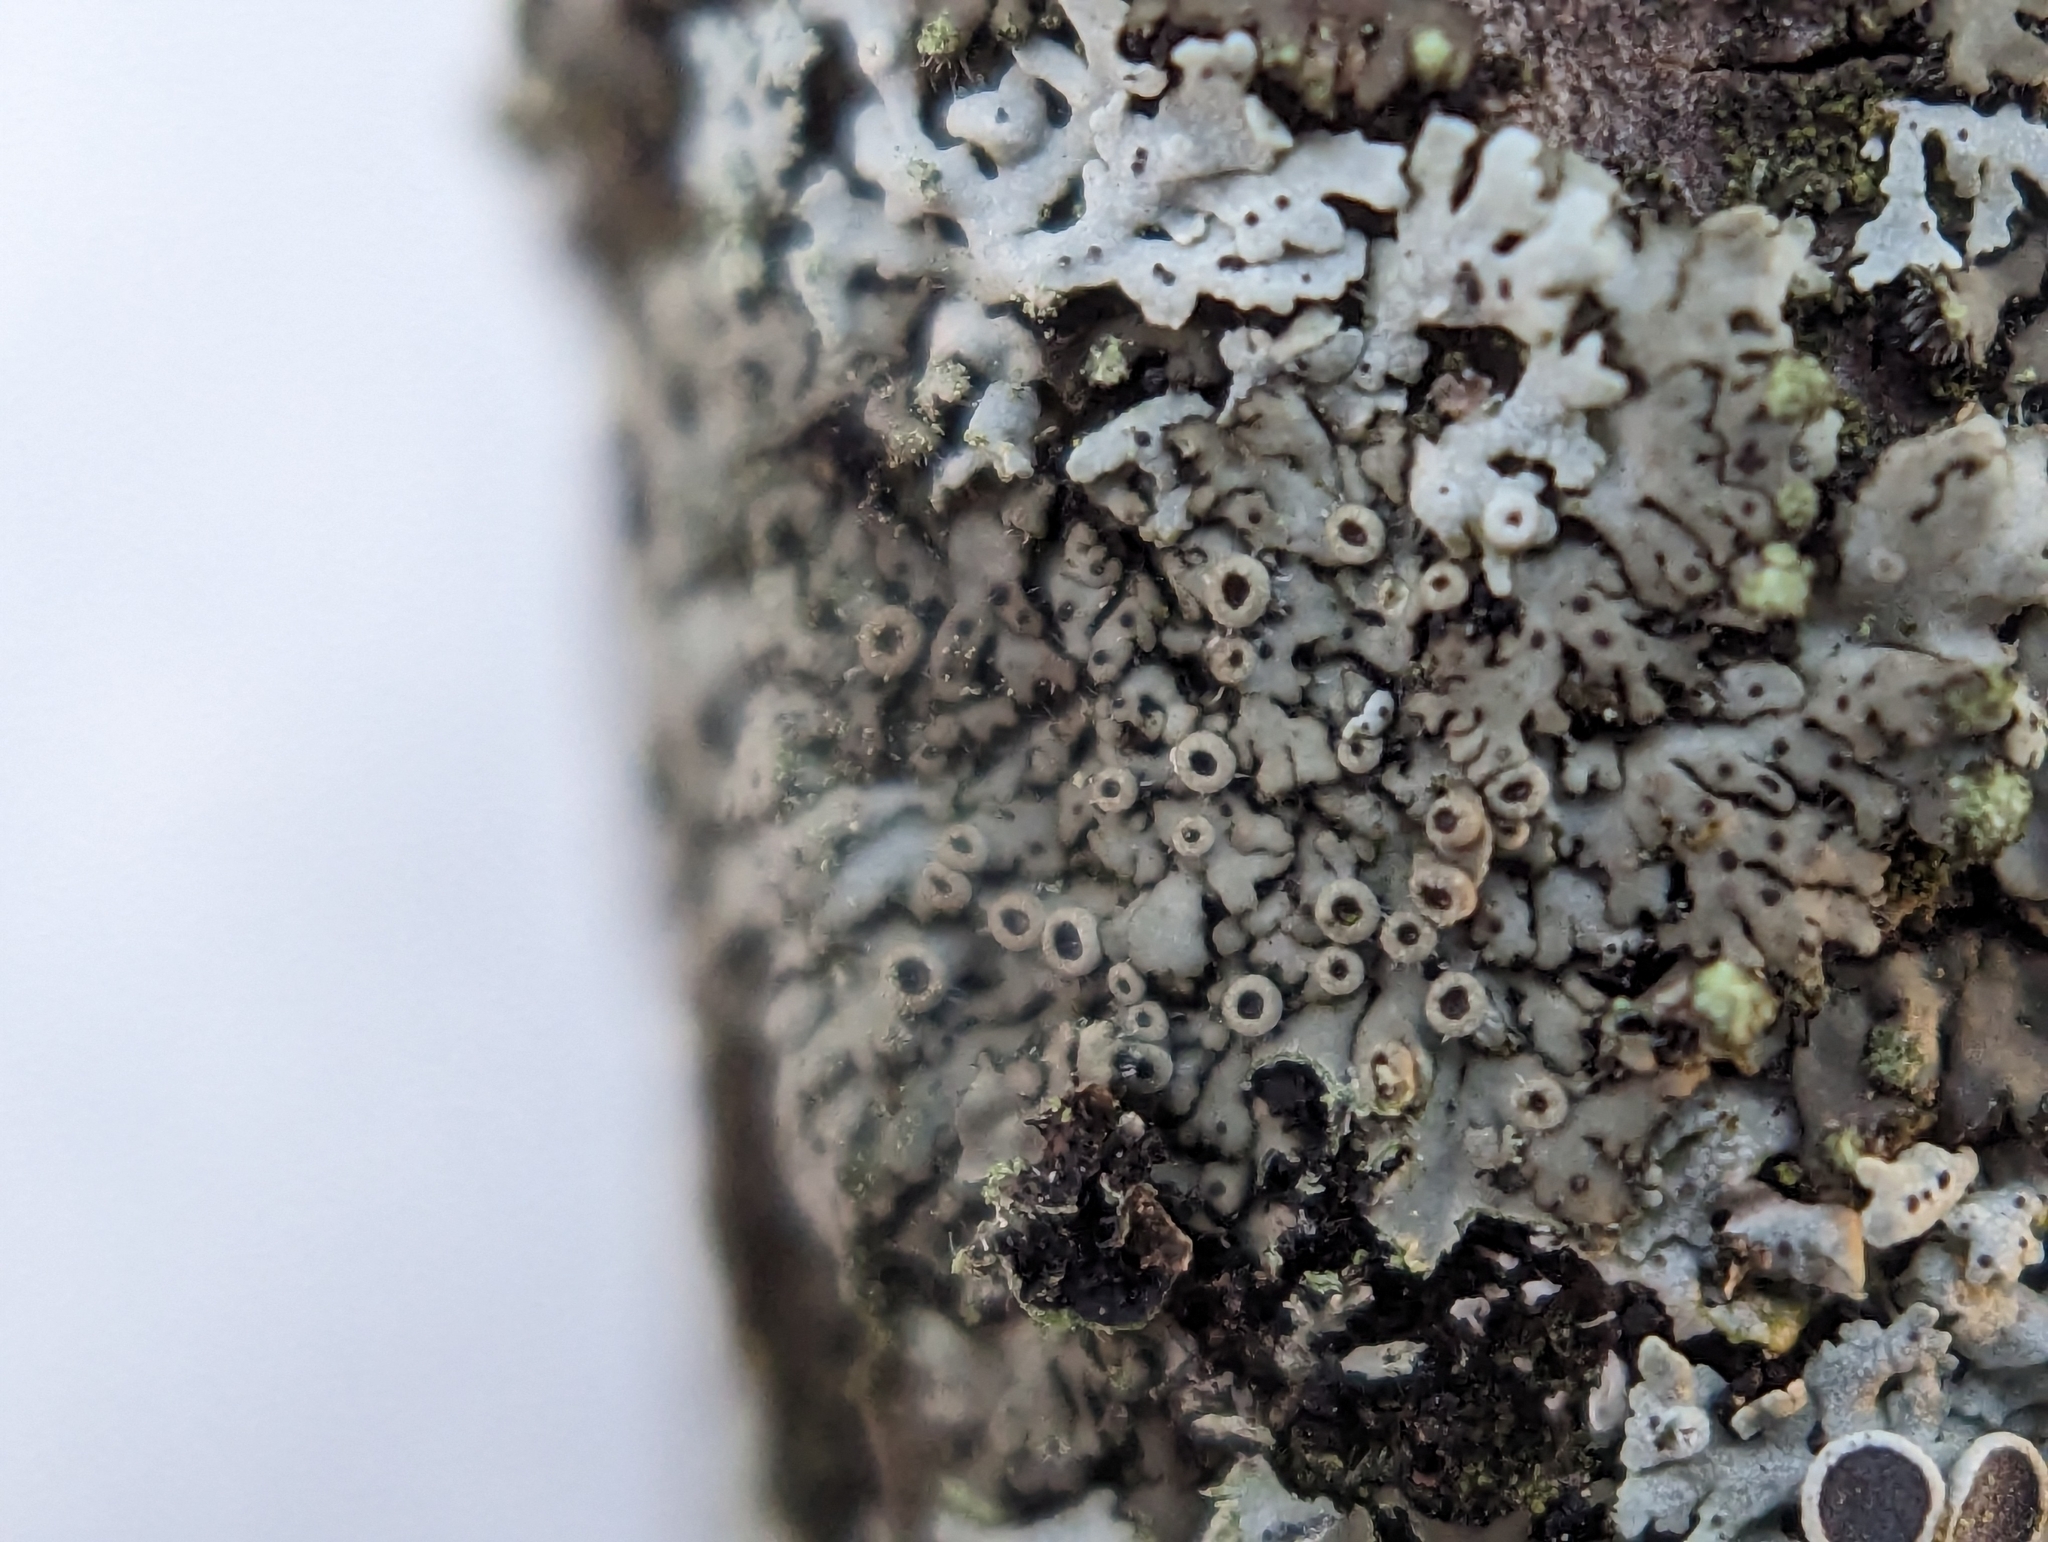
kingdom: Fungi
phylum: Ascomycota
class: Lecanoromycetes
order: Caliciales
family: Physciaceae
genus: Phaeophyscia
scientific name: Phaeophyscia ciliata
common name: Smooth shadow lichen
